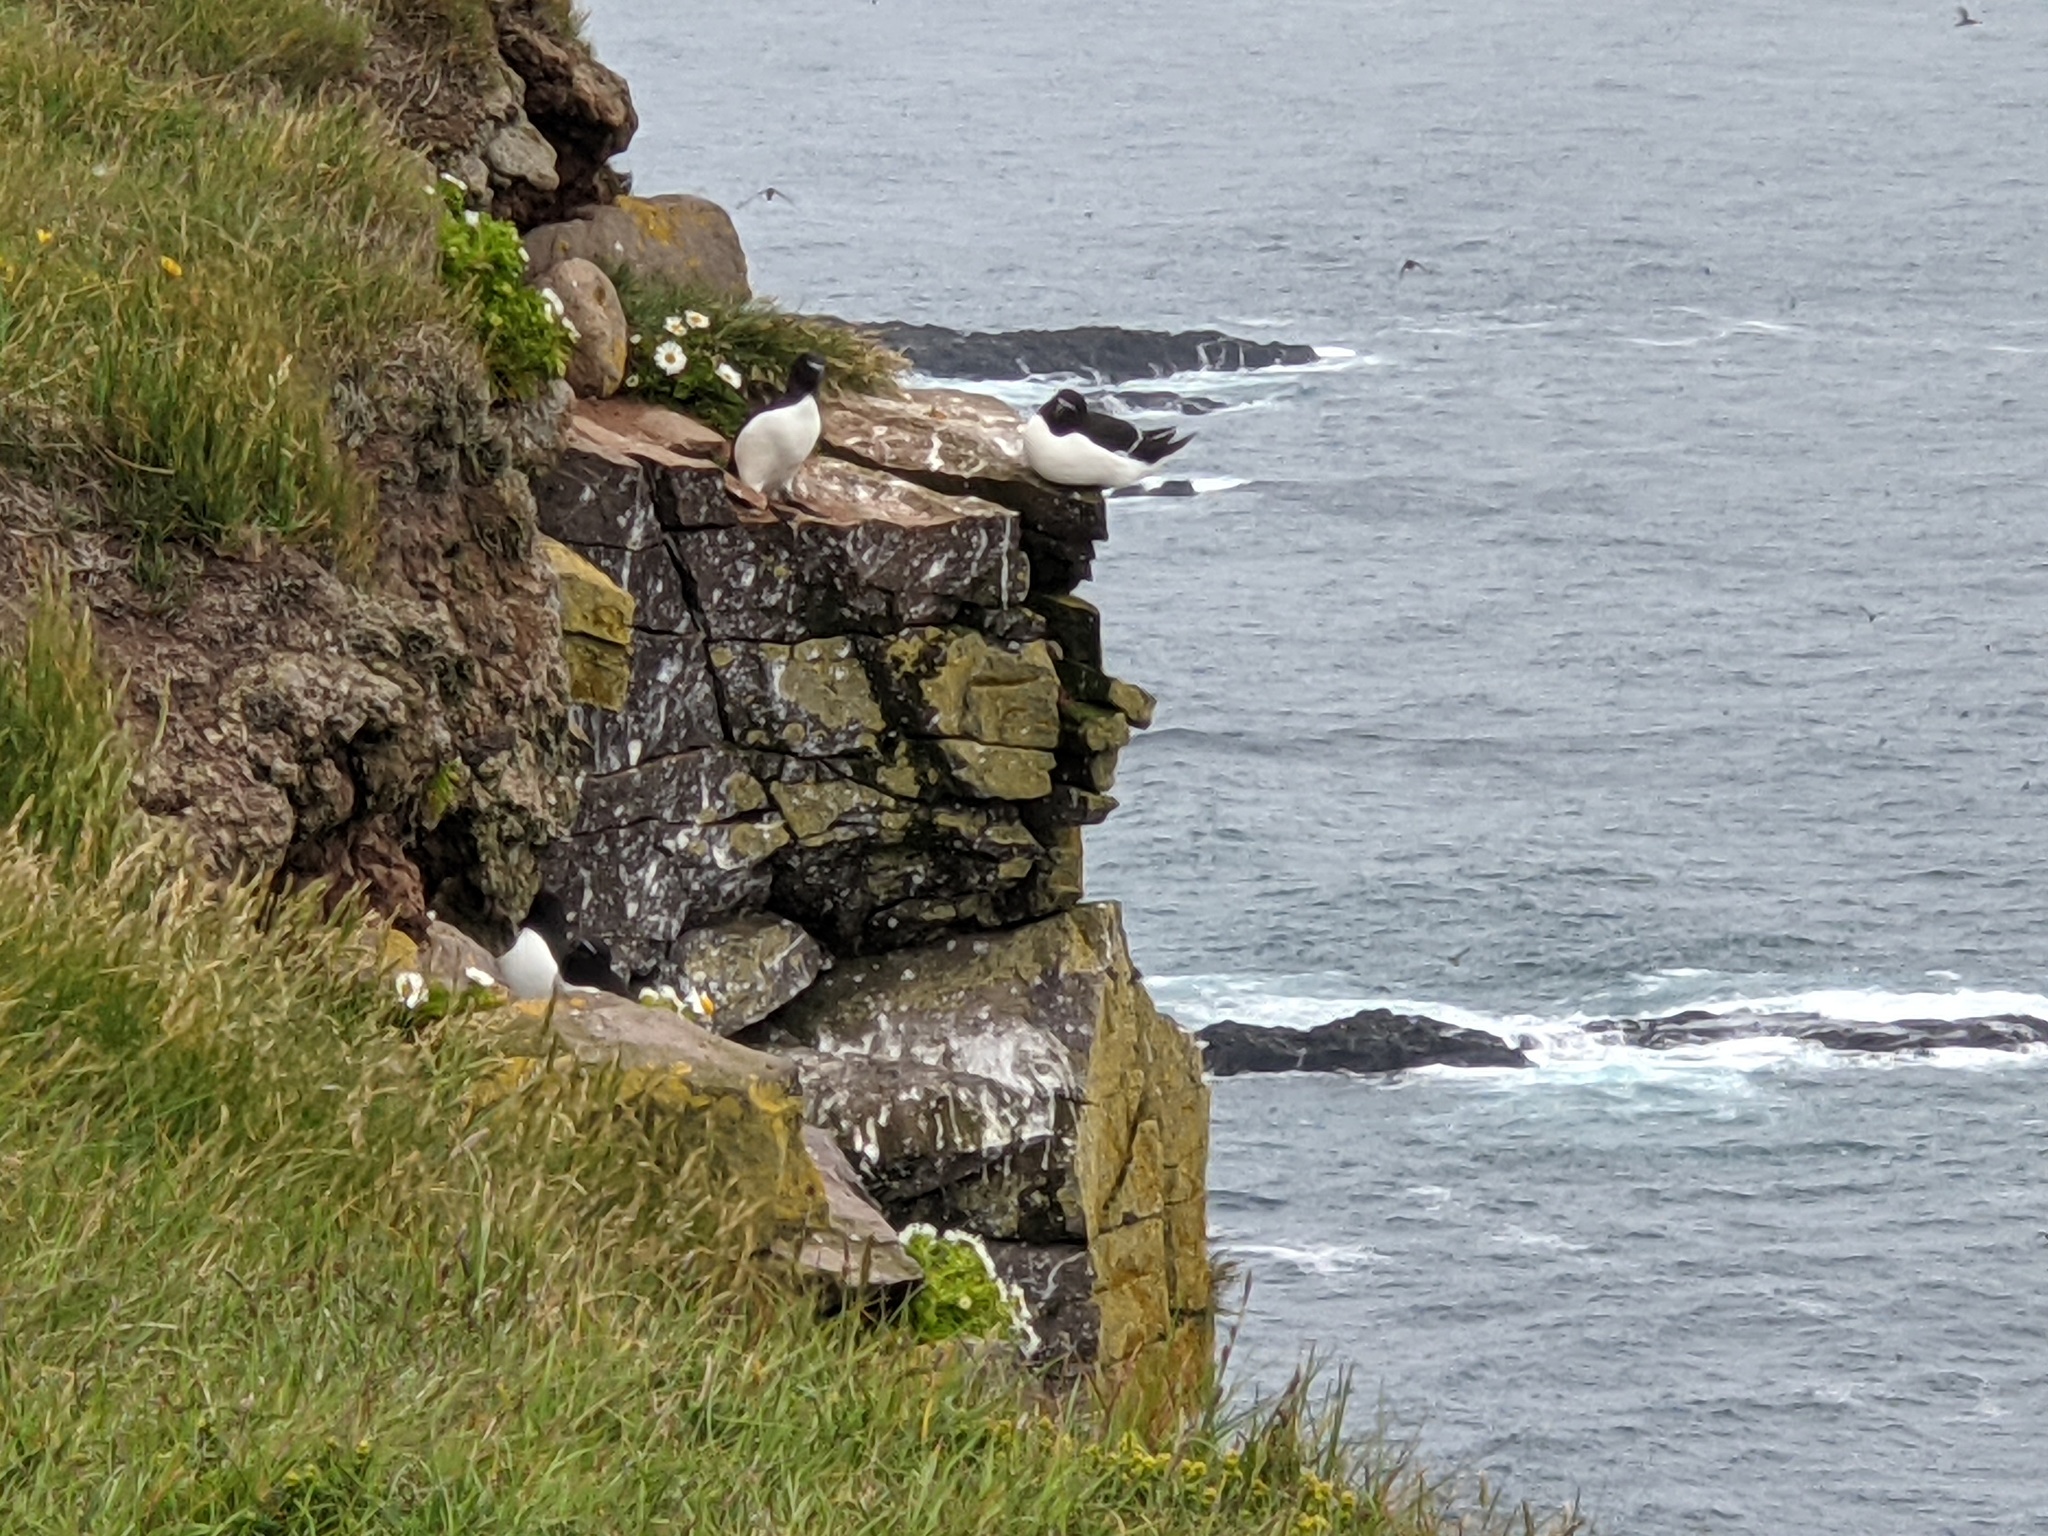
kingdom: Animalia
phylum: Chordata
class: Aves
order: Charadriiformes
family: Alcidae
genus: Alca
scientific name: Alca torda
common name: Razorbill
